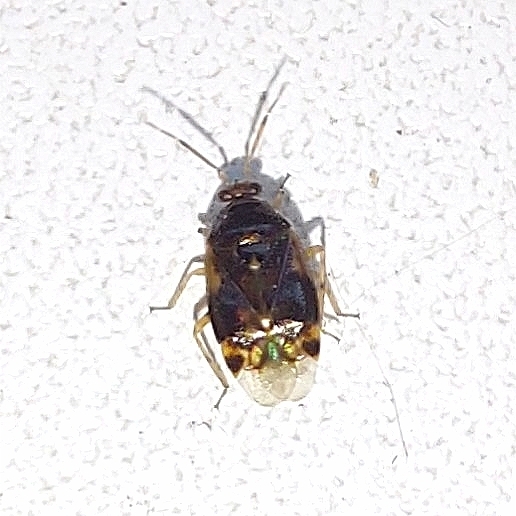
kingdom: Animalia
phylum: Arthropoda
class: Insecta
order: Hemiptera
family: Miridae
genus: Deraeocoris
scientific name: Deraeocoris lutescens
